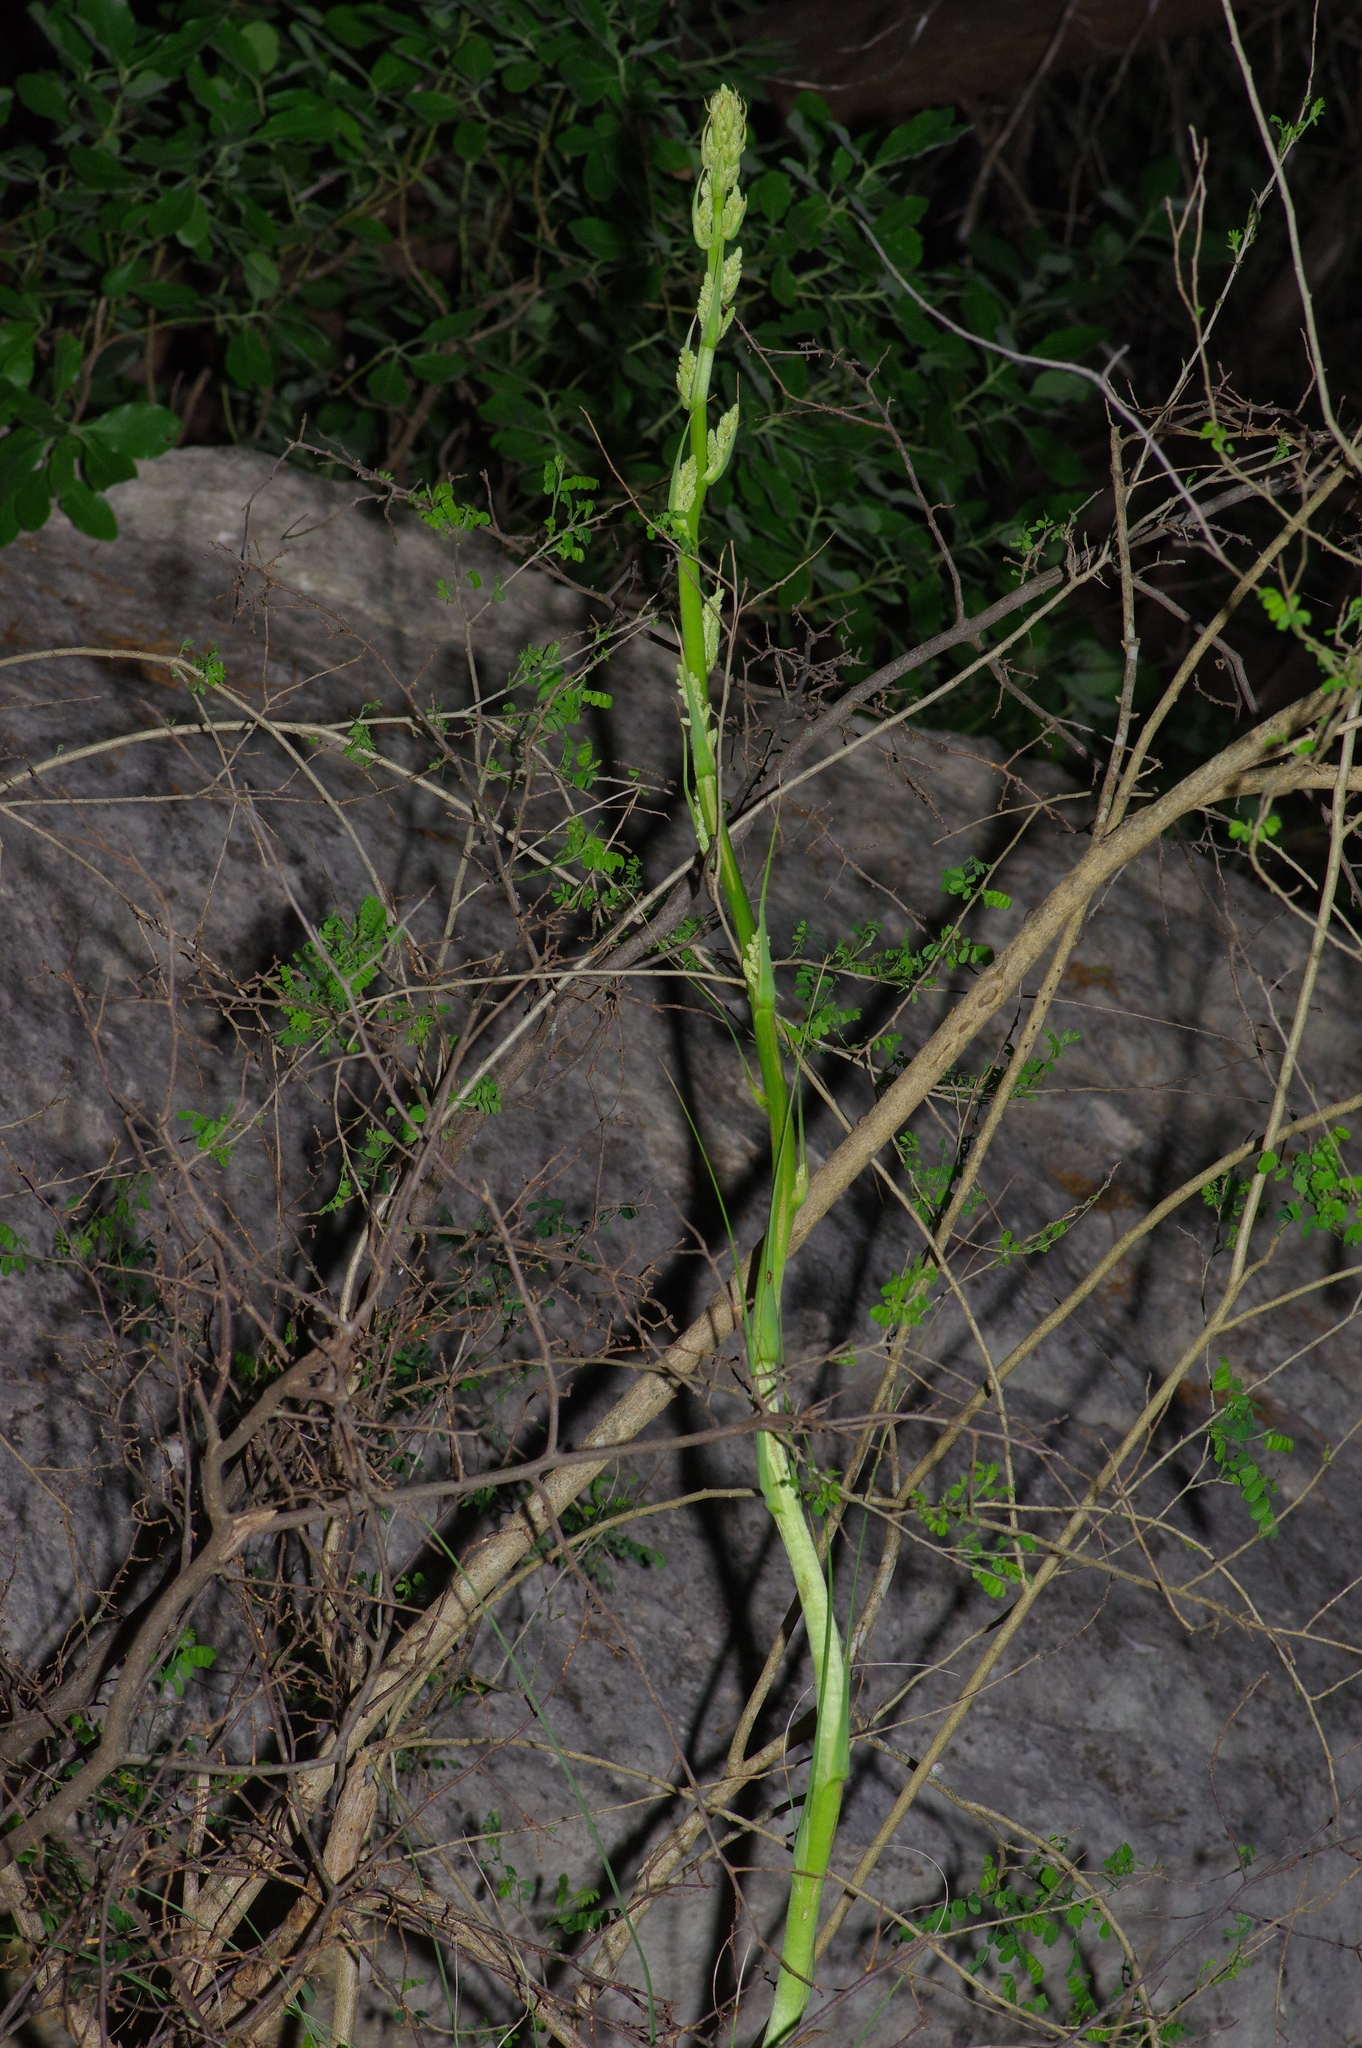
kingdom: Plantae
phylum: Tracheophyta
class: Liliopsida
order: Asparagales
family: Asparagaceae
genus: Nolina
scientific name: Nolina lindheimeriana
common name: Lindheimer's bear-grass
